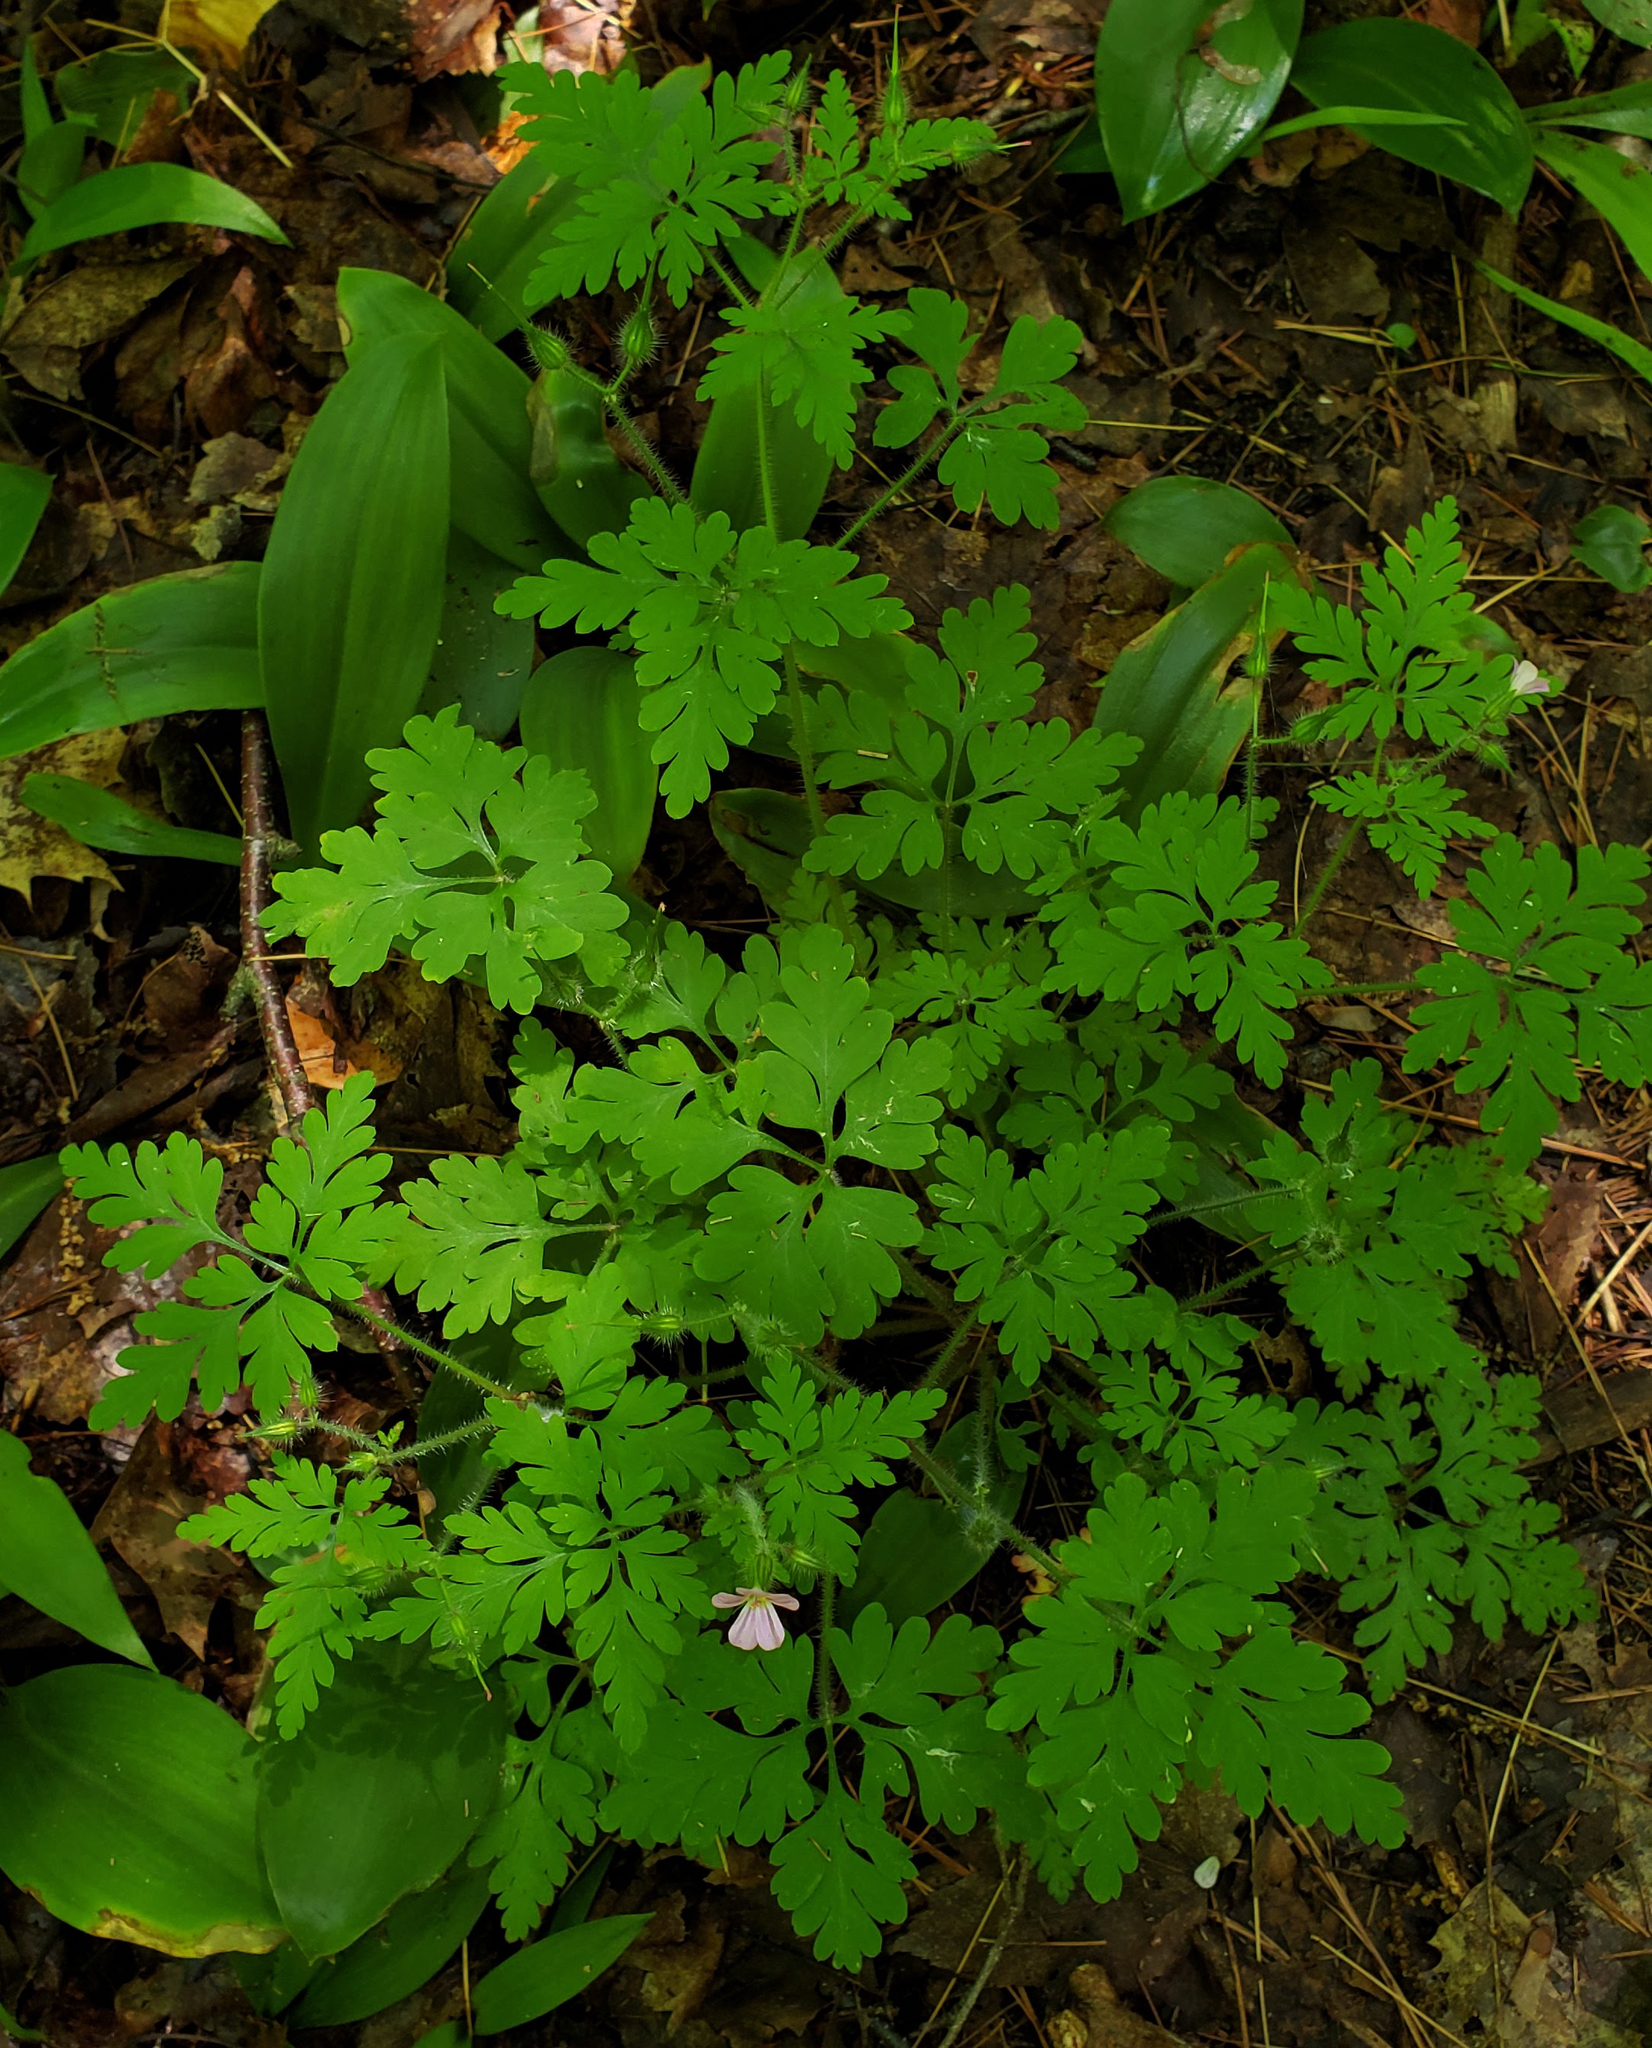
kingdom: Plantae
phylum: Tracheophyta
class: Magnoliopsida
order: Geraniales
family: Geraniaceae
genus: Geranium
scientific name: Geranium robertianum
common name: Herb-robert
